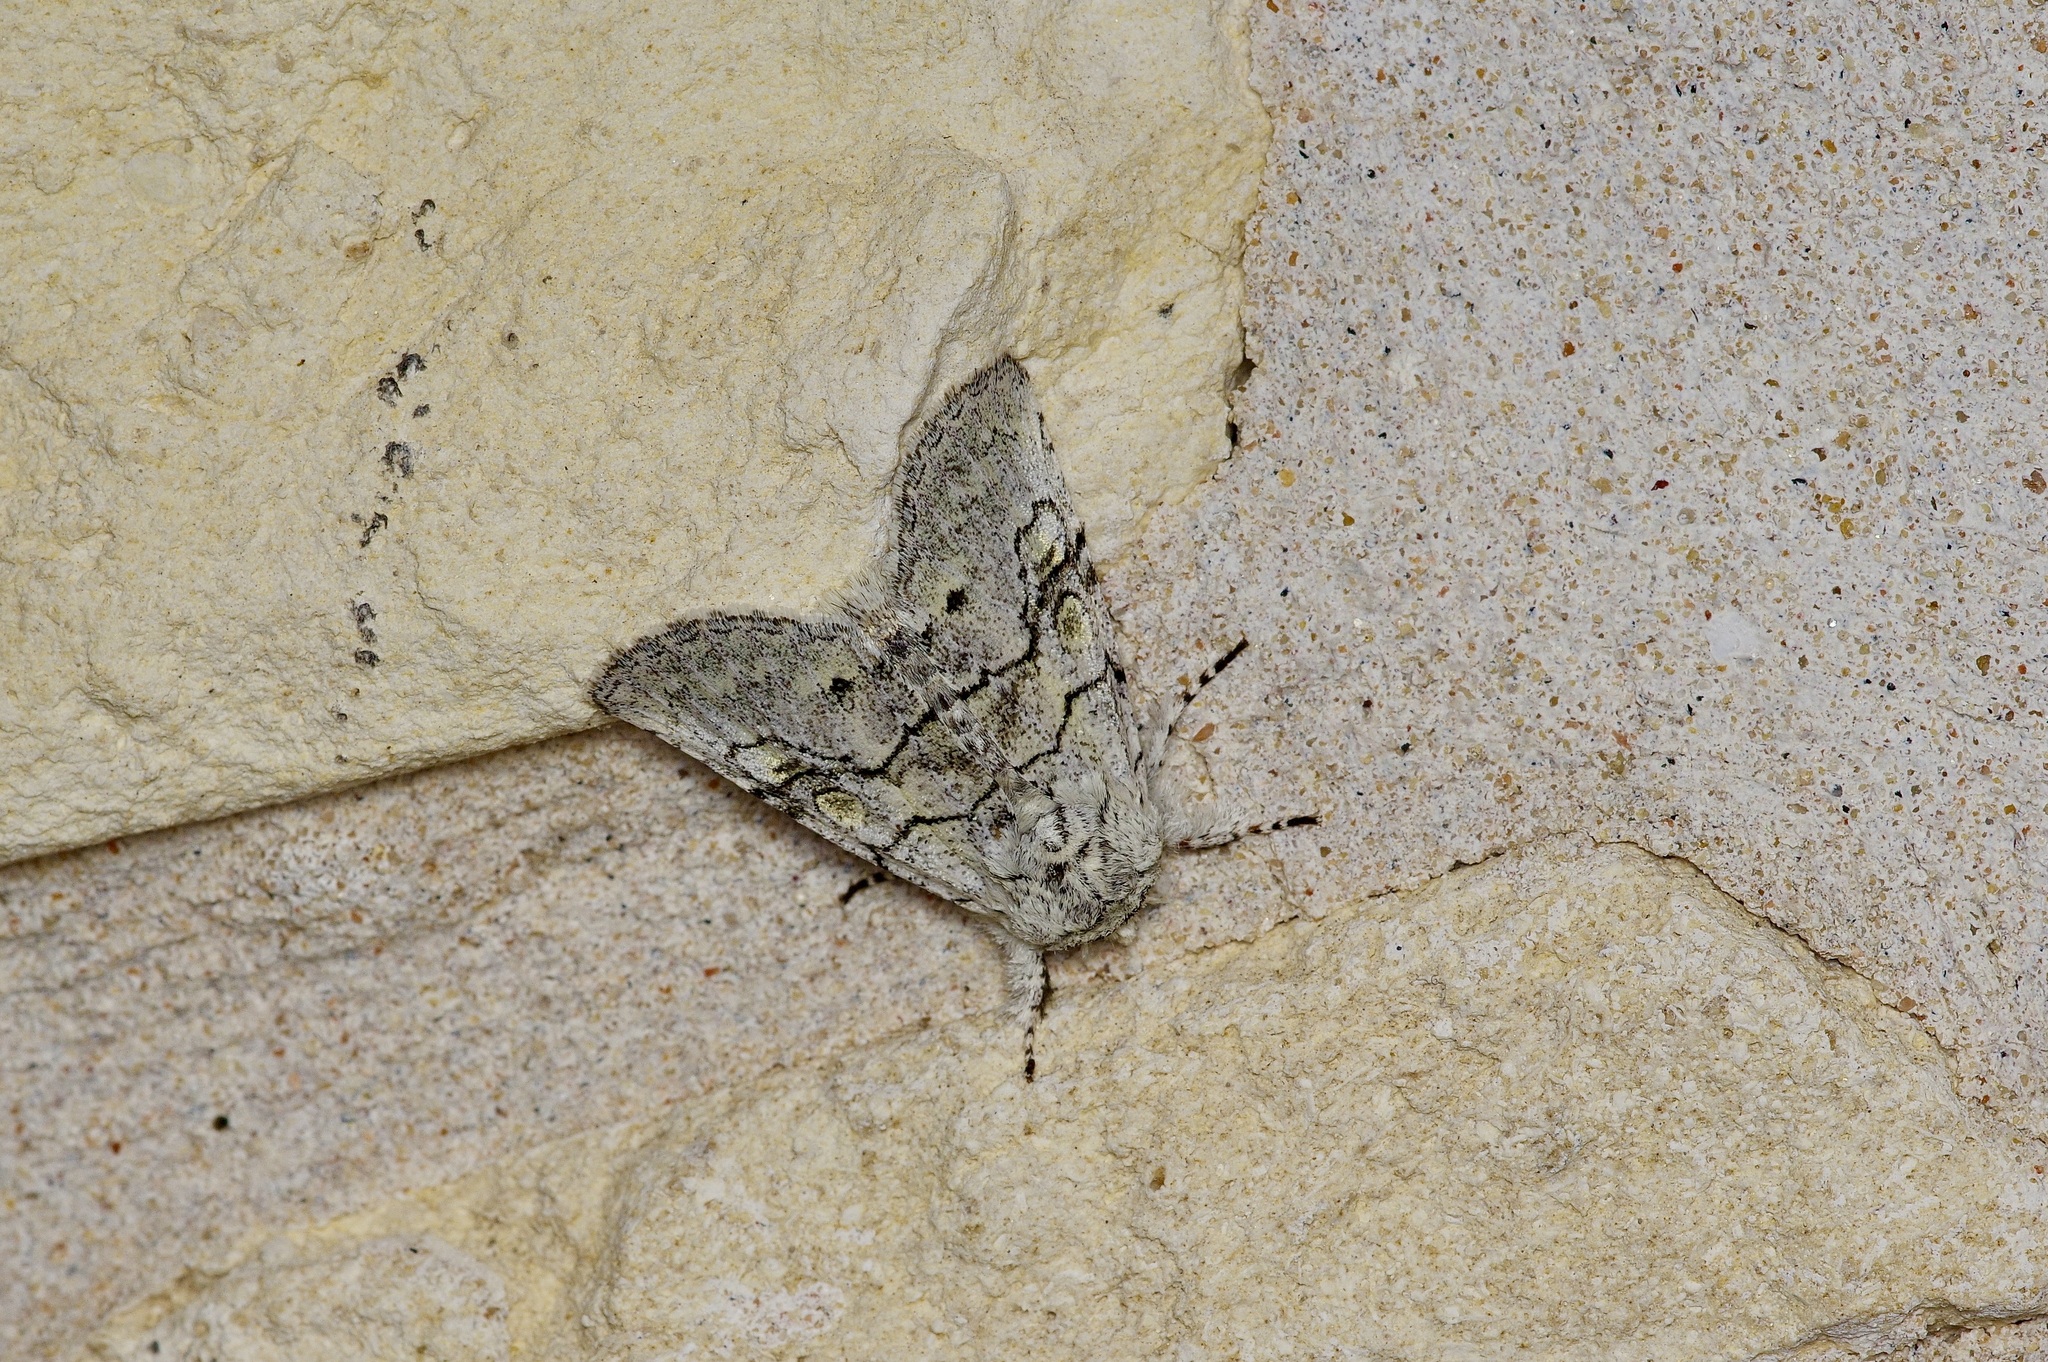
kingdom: Animalia
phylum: Arthropoda
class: Insecta
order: Lepidoptera
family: Noctuidae
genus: Charadra
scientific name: Charadra dispulsa
